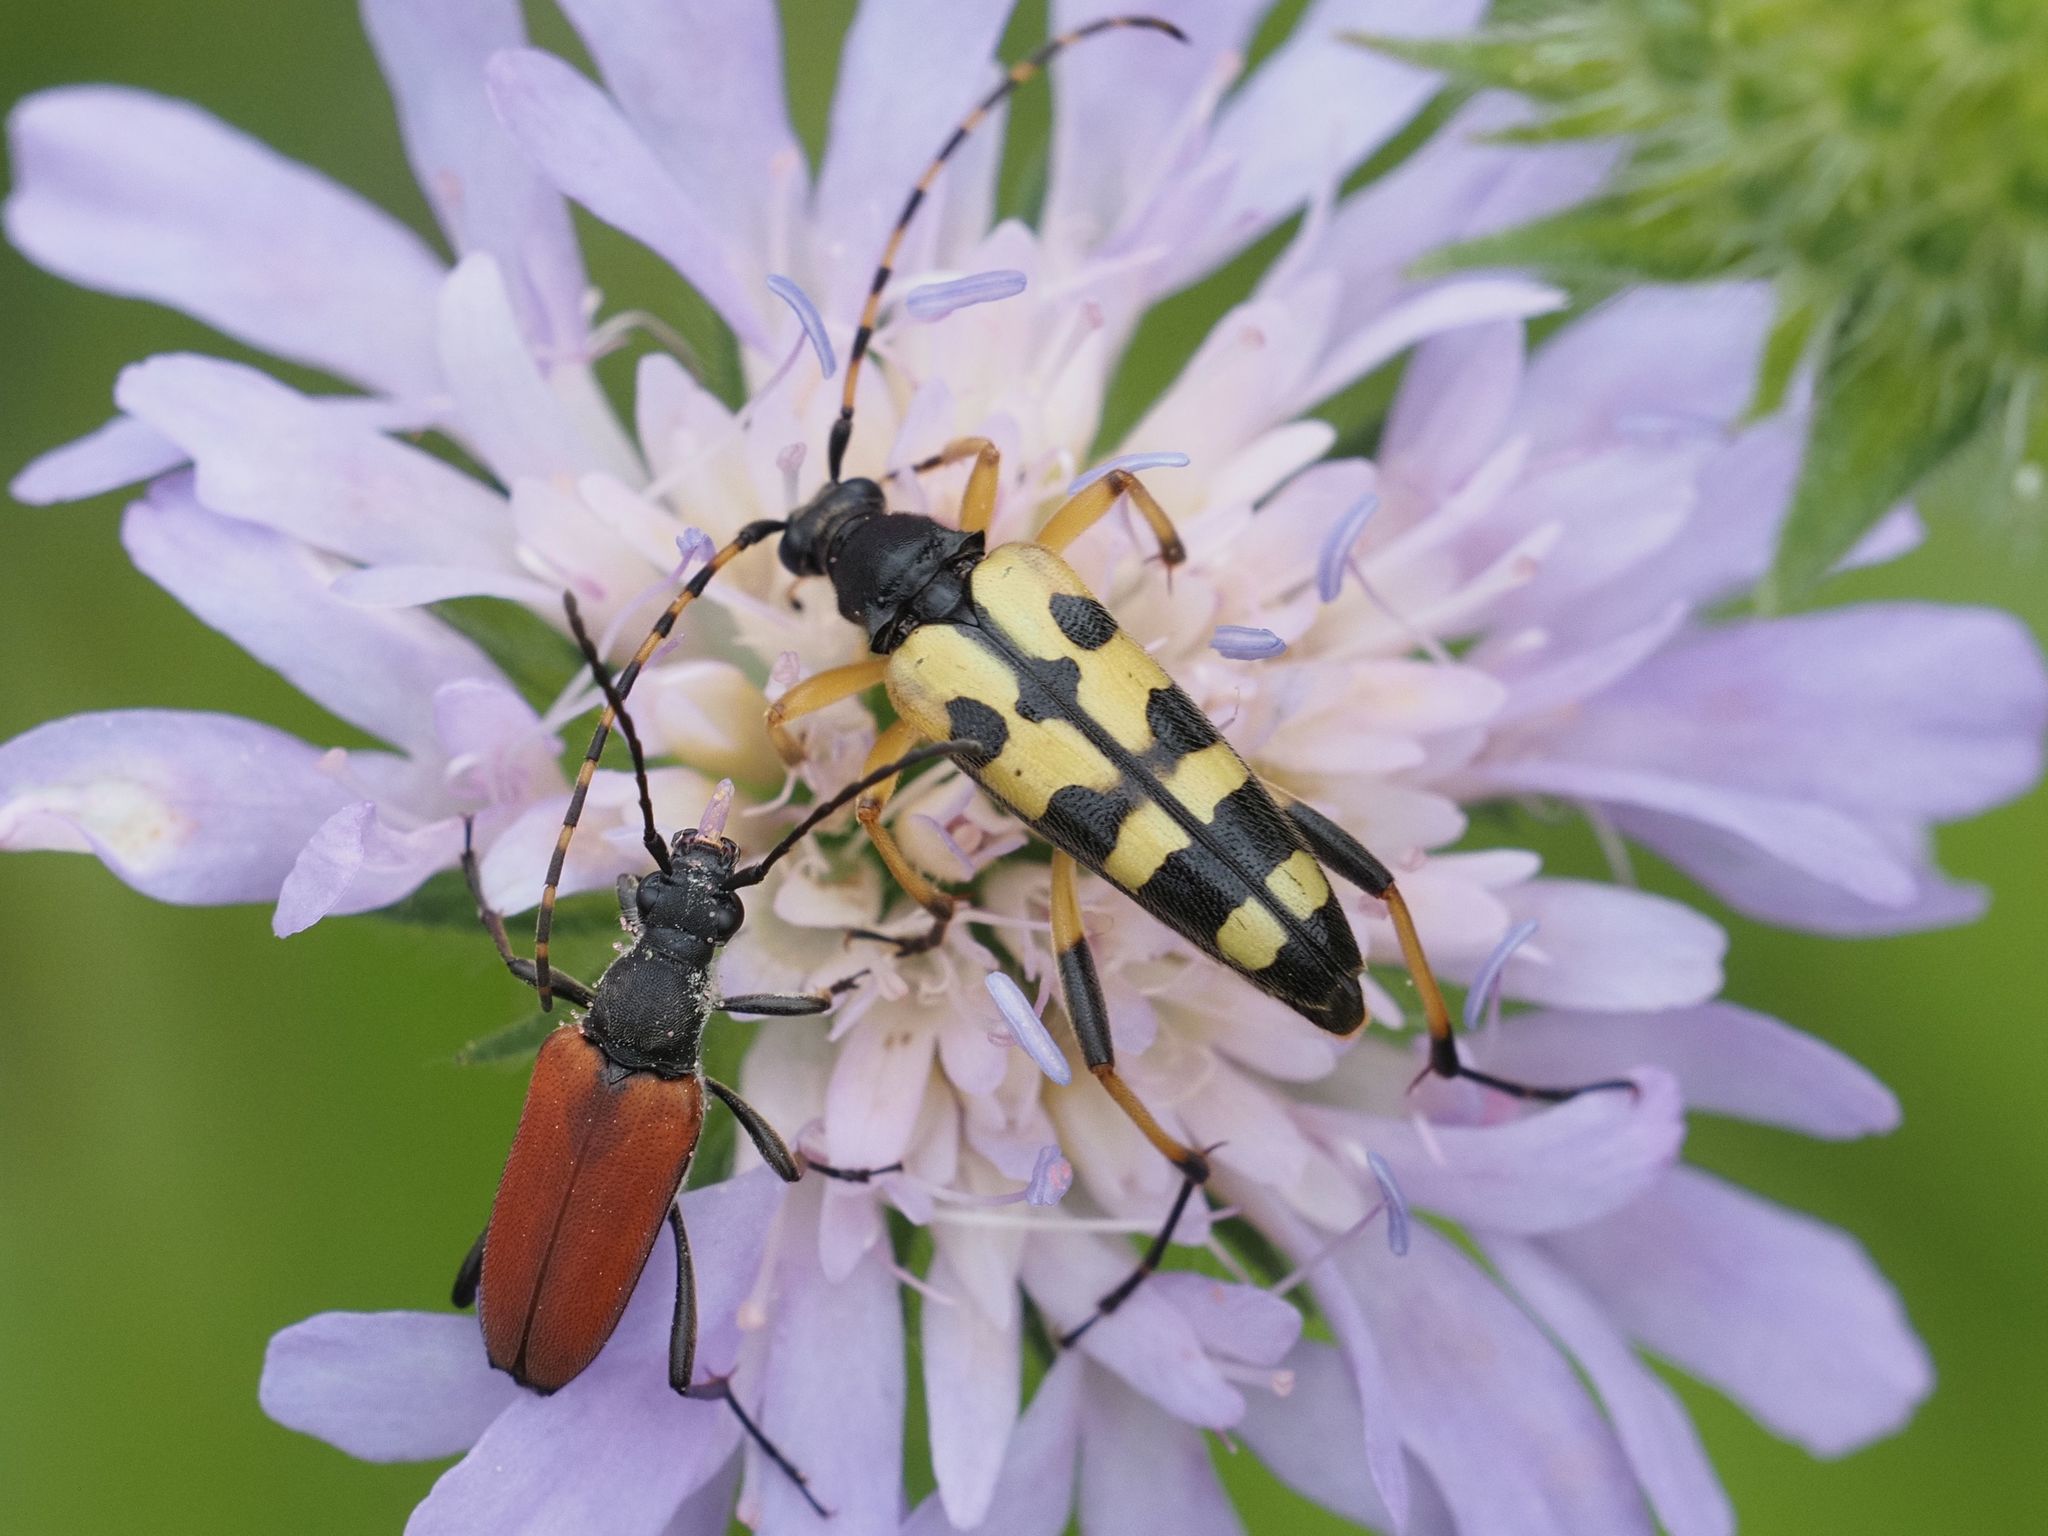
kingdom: Animalia
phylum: Arthropoda
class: Insecta
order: Coleoptera
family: Cerambycidae
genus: Rutpela
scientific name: Rutpela maculata
